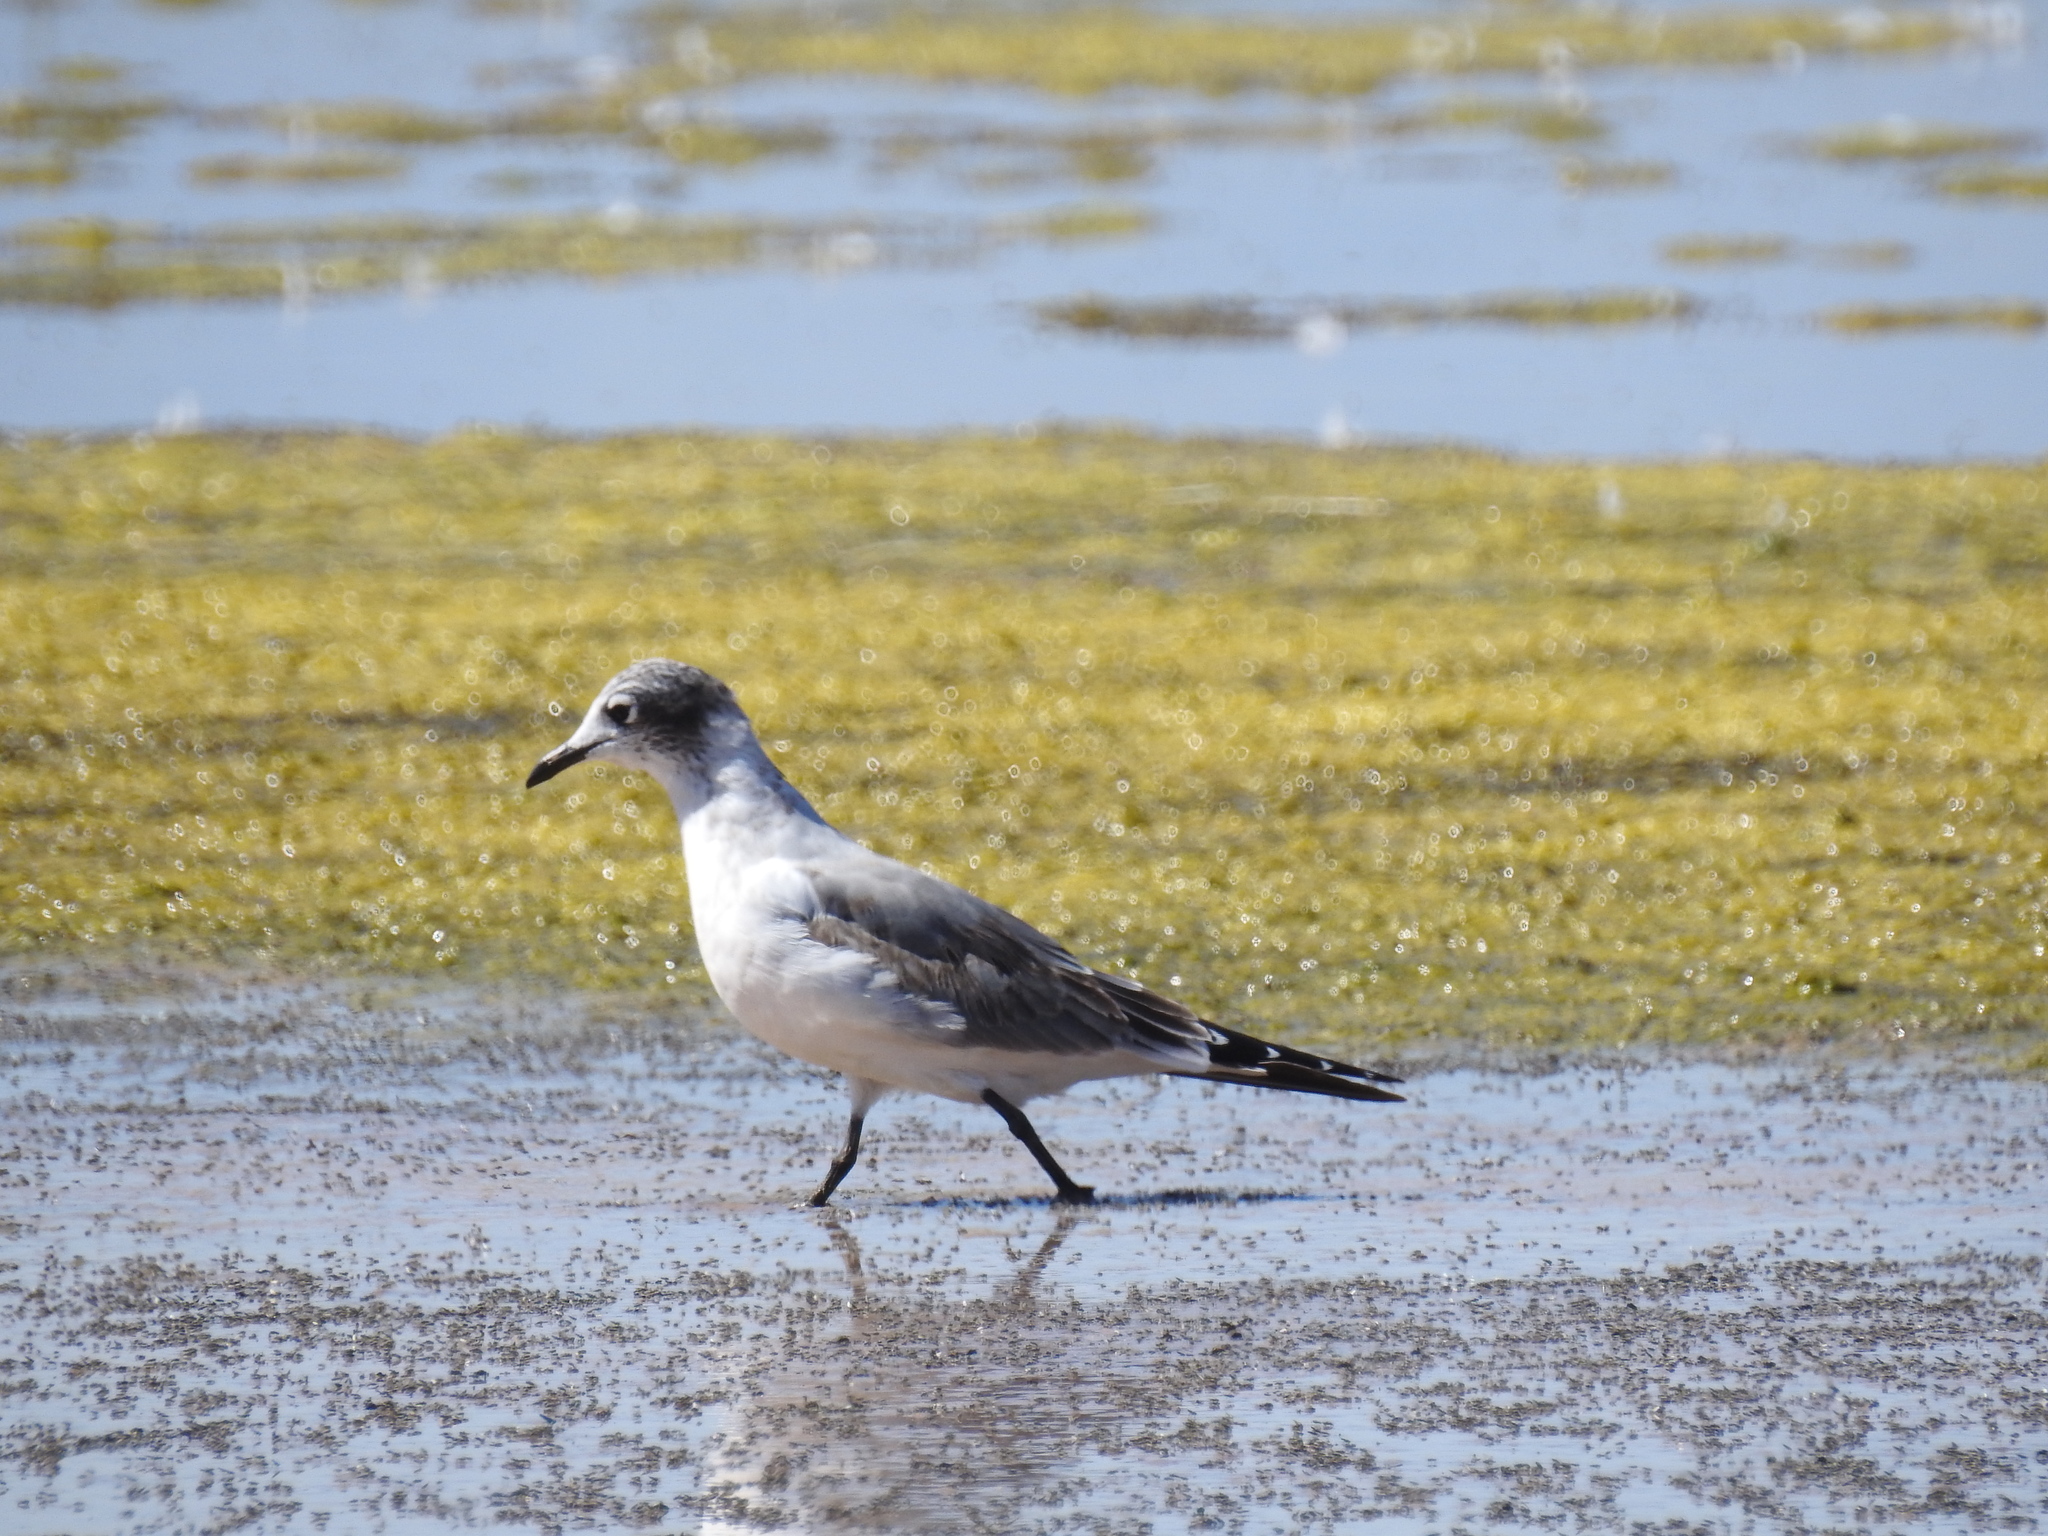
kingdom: Animalia
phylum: Chordata
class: Aves
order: Charadriiformes
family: Laridae
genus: Leucophaeus
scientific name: Leucophaeus pipixcan
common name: Franklin's gull
